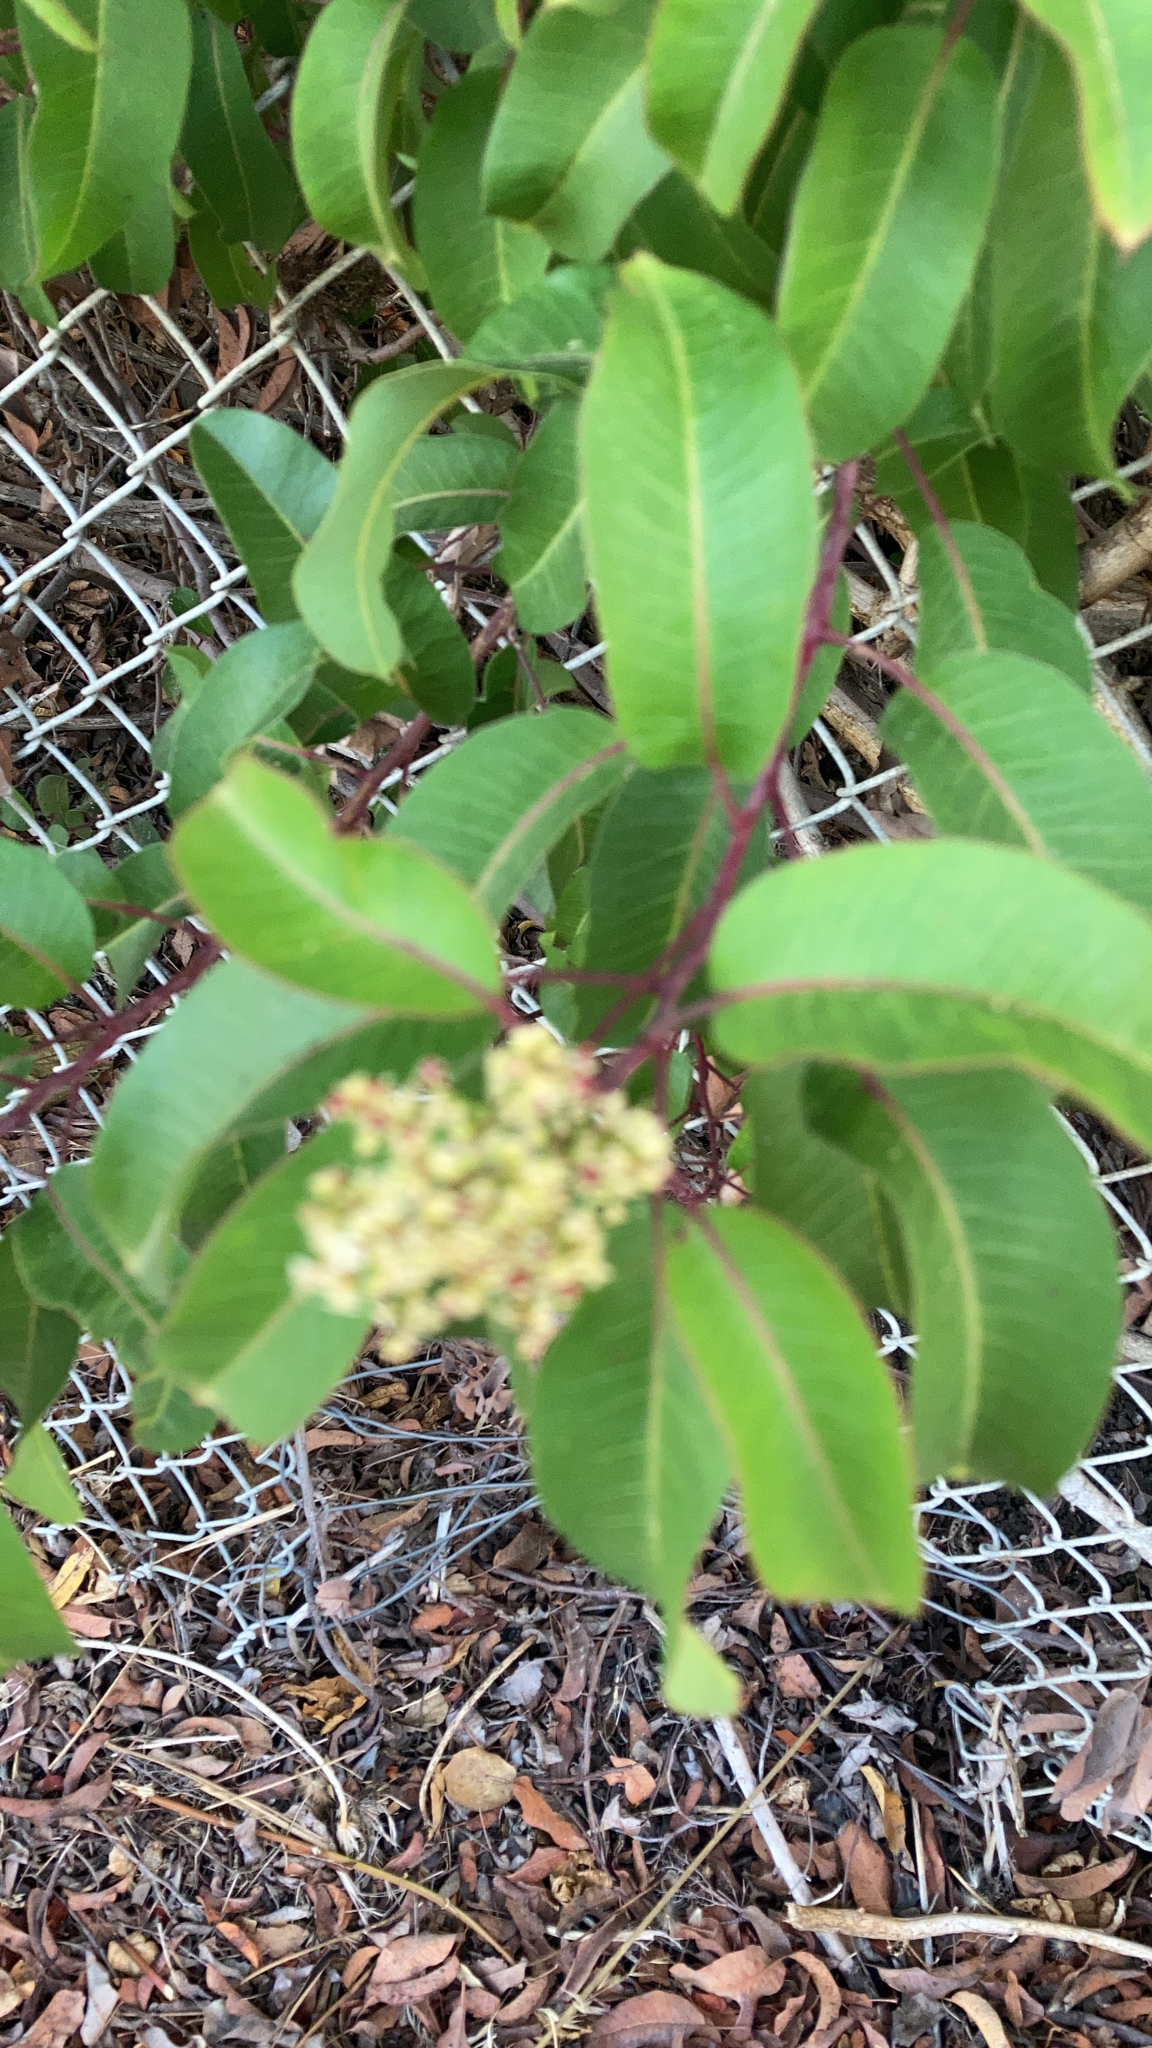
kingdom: Plantae
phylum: Tracheophyta
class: Magnoliopsida
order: Sapindales
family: Anacardiaceae
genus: Malosma
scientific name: Malosma laurina
